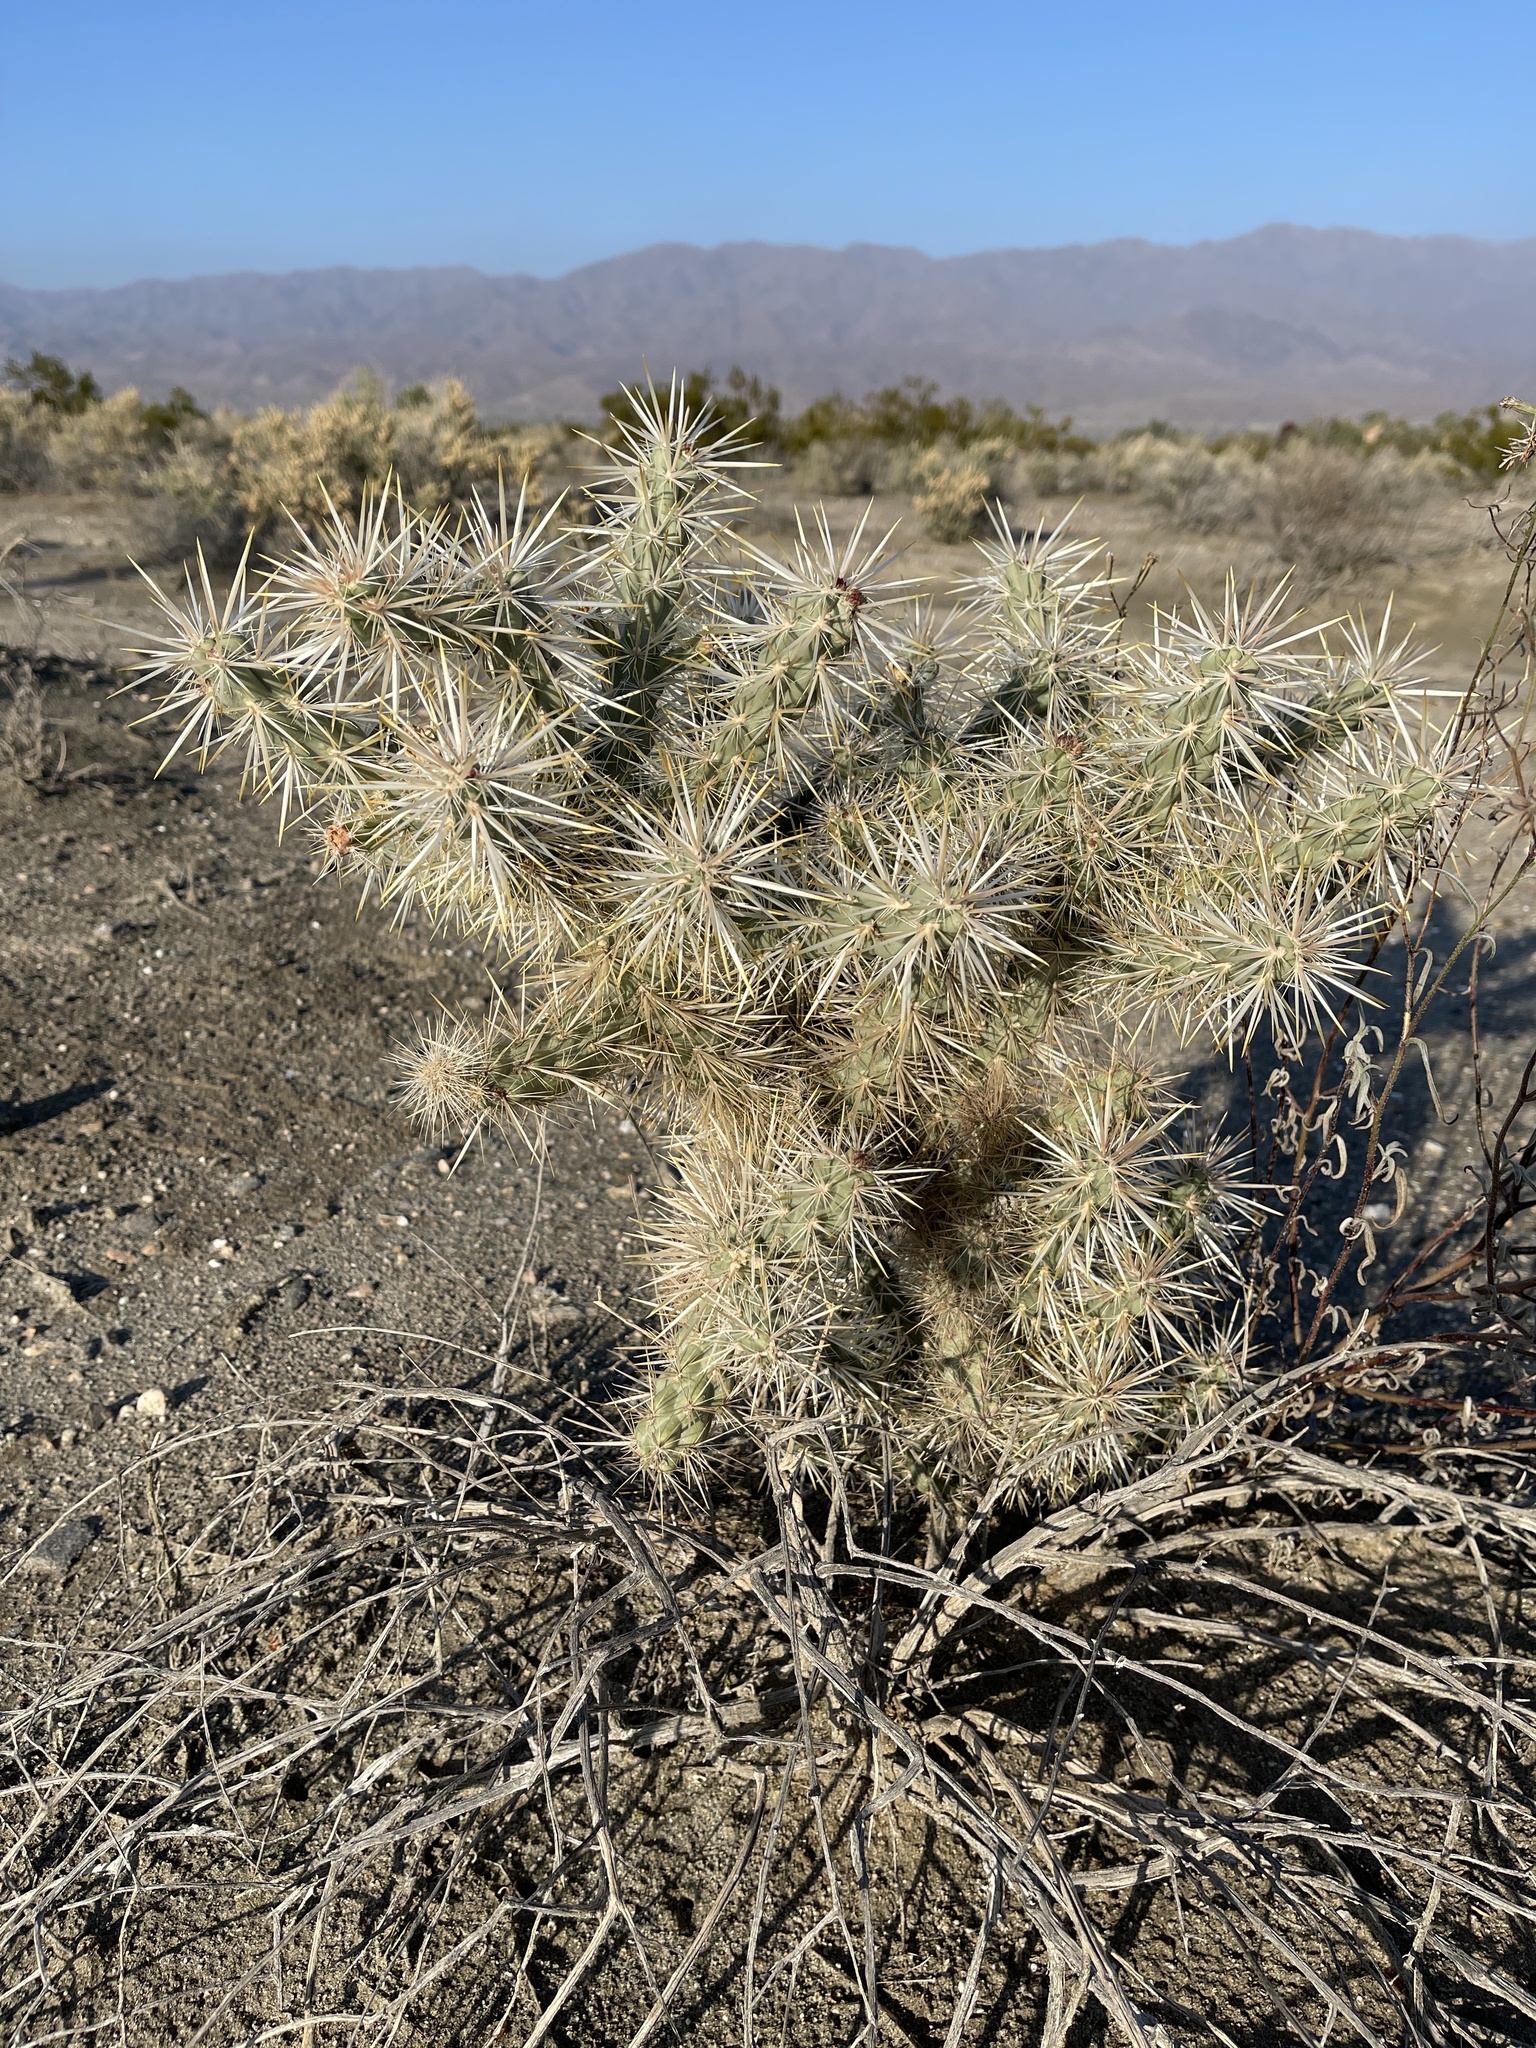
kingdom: Plantae
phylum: Tracheophyta
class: Magnoliopsida
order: Caryophyllales
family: Cactaceae
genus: Cylindropuntia
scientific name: Cylindropuntia echinocarpa
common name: Ground cholla
